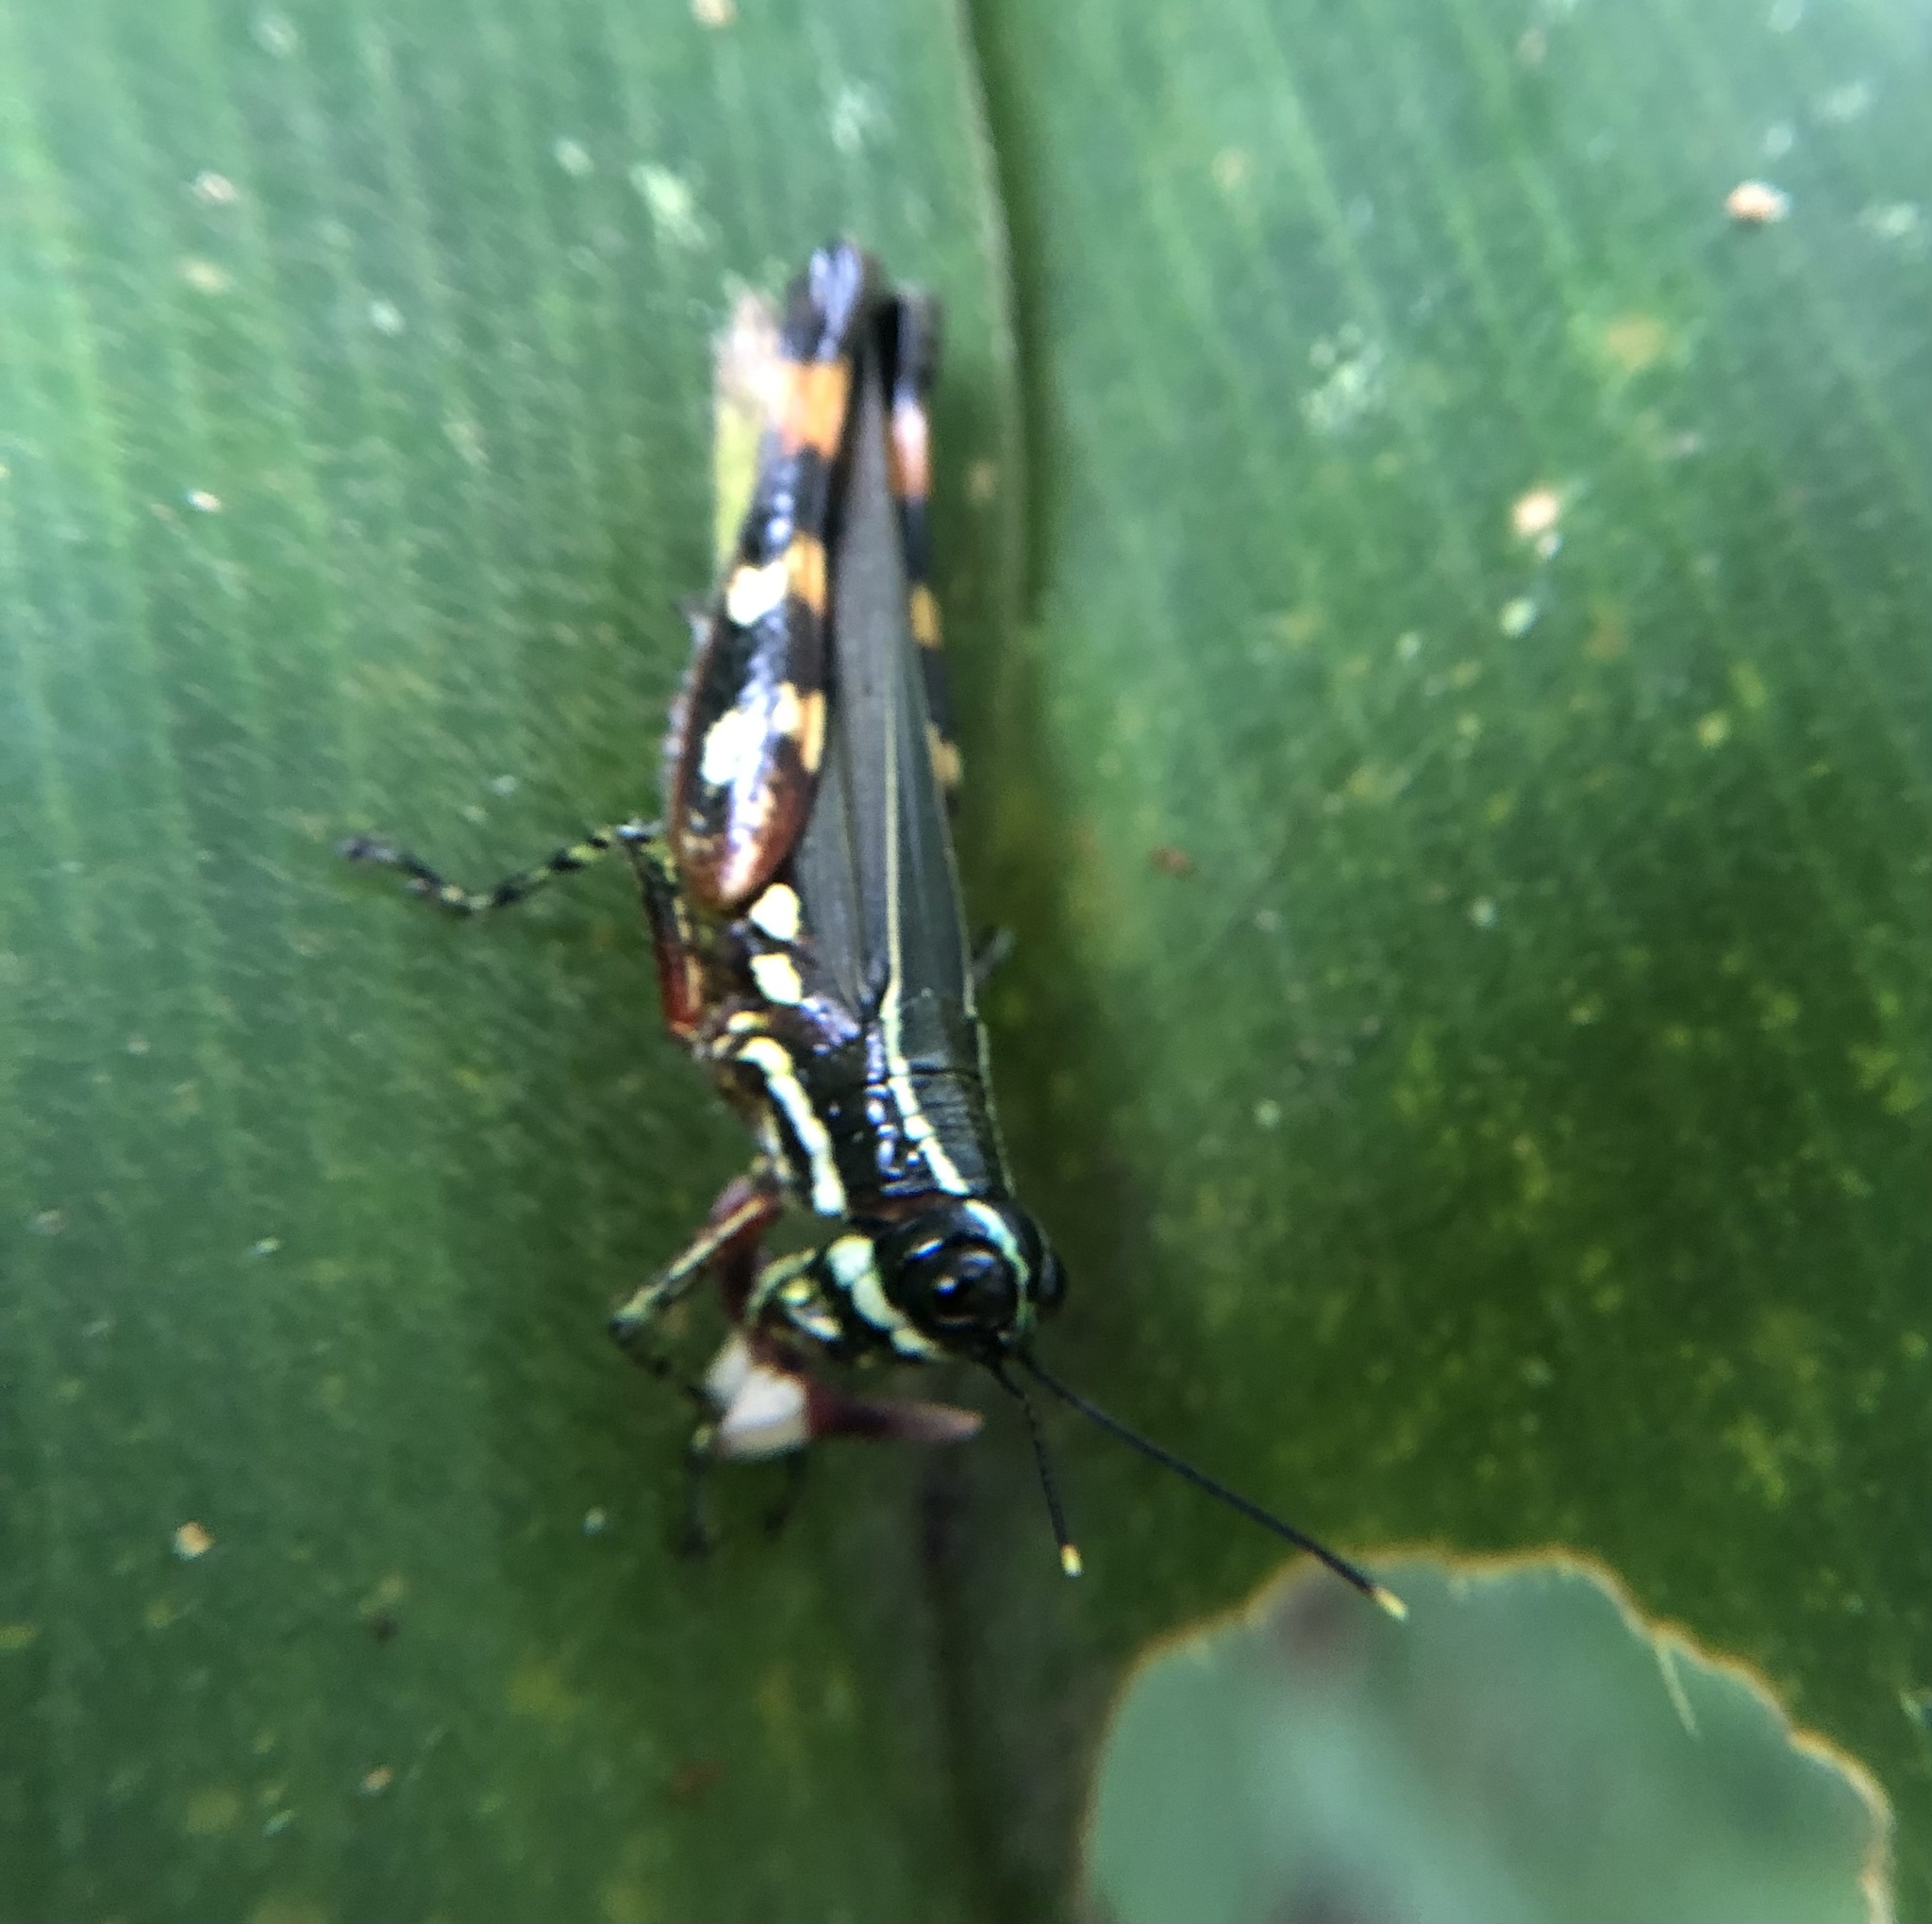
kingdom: Animalia
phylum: Arthropoda
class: Insecta
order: Orthoptera
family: Acrididae
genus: Tetrataenia
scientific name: Tetrataenia surinama
